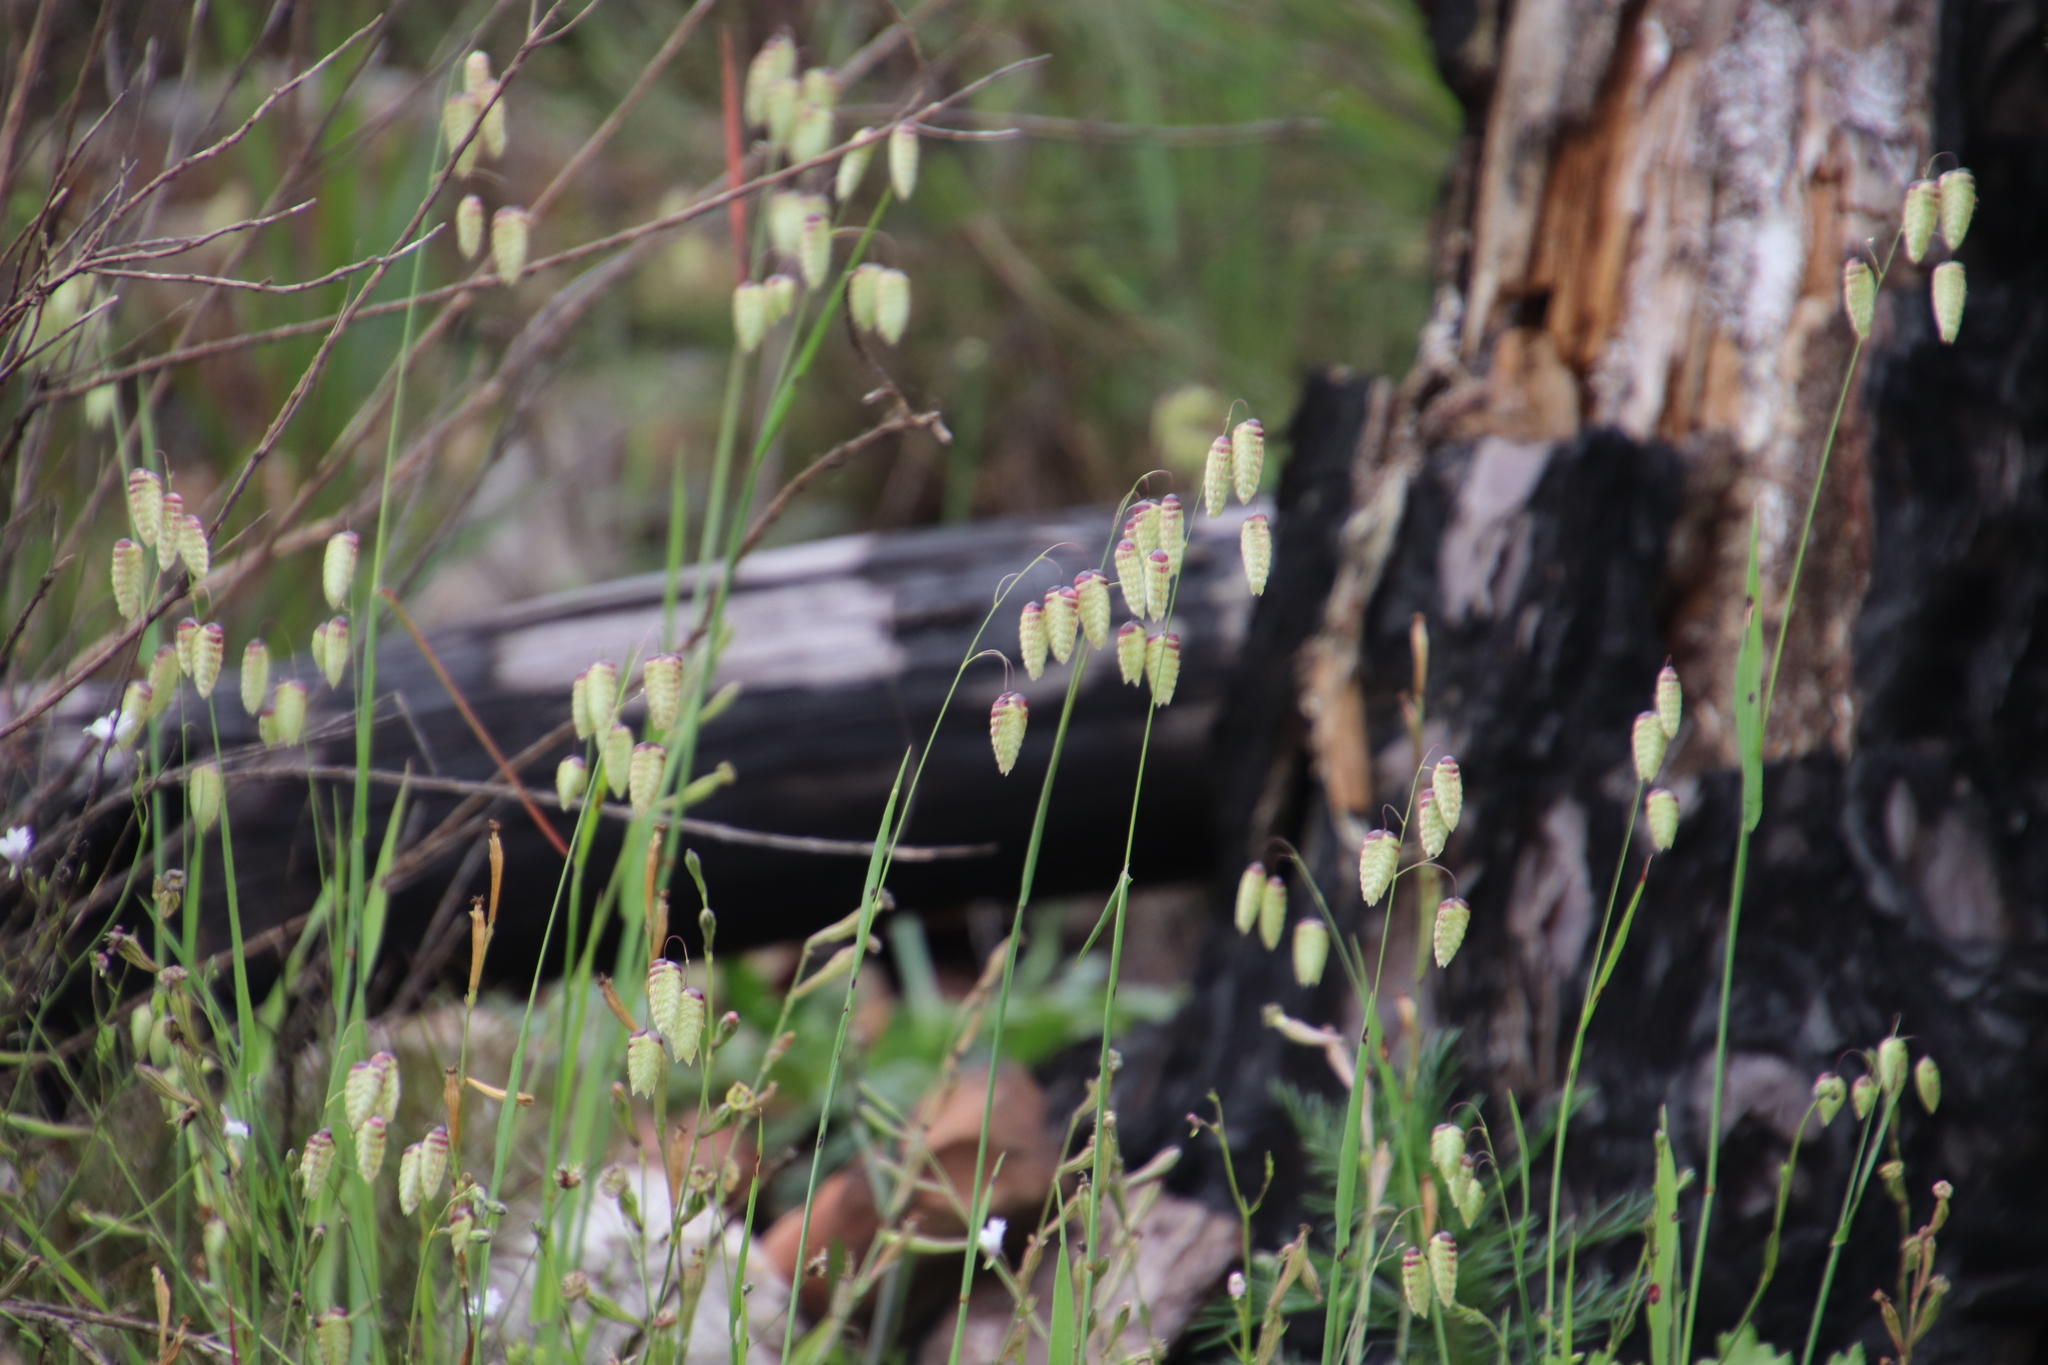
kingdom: Plantae
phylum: Tracheophyta
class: Liliopsida
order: Poales
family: Poaceae
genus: Briza
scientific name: Briza maxima
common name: Big quakinggrass
